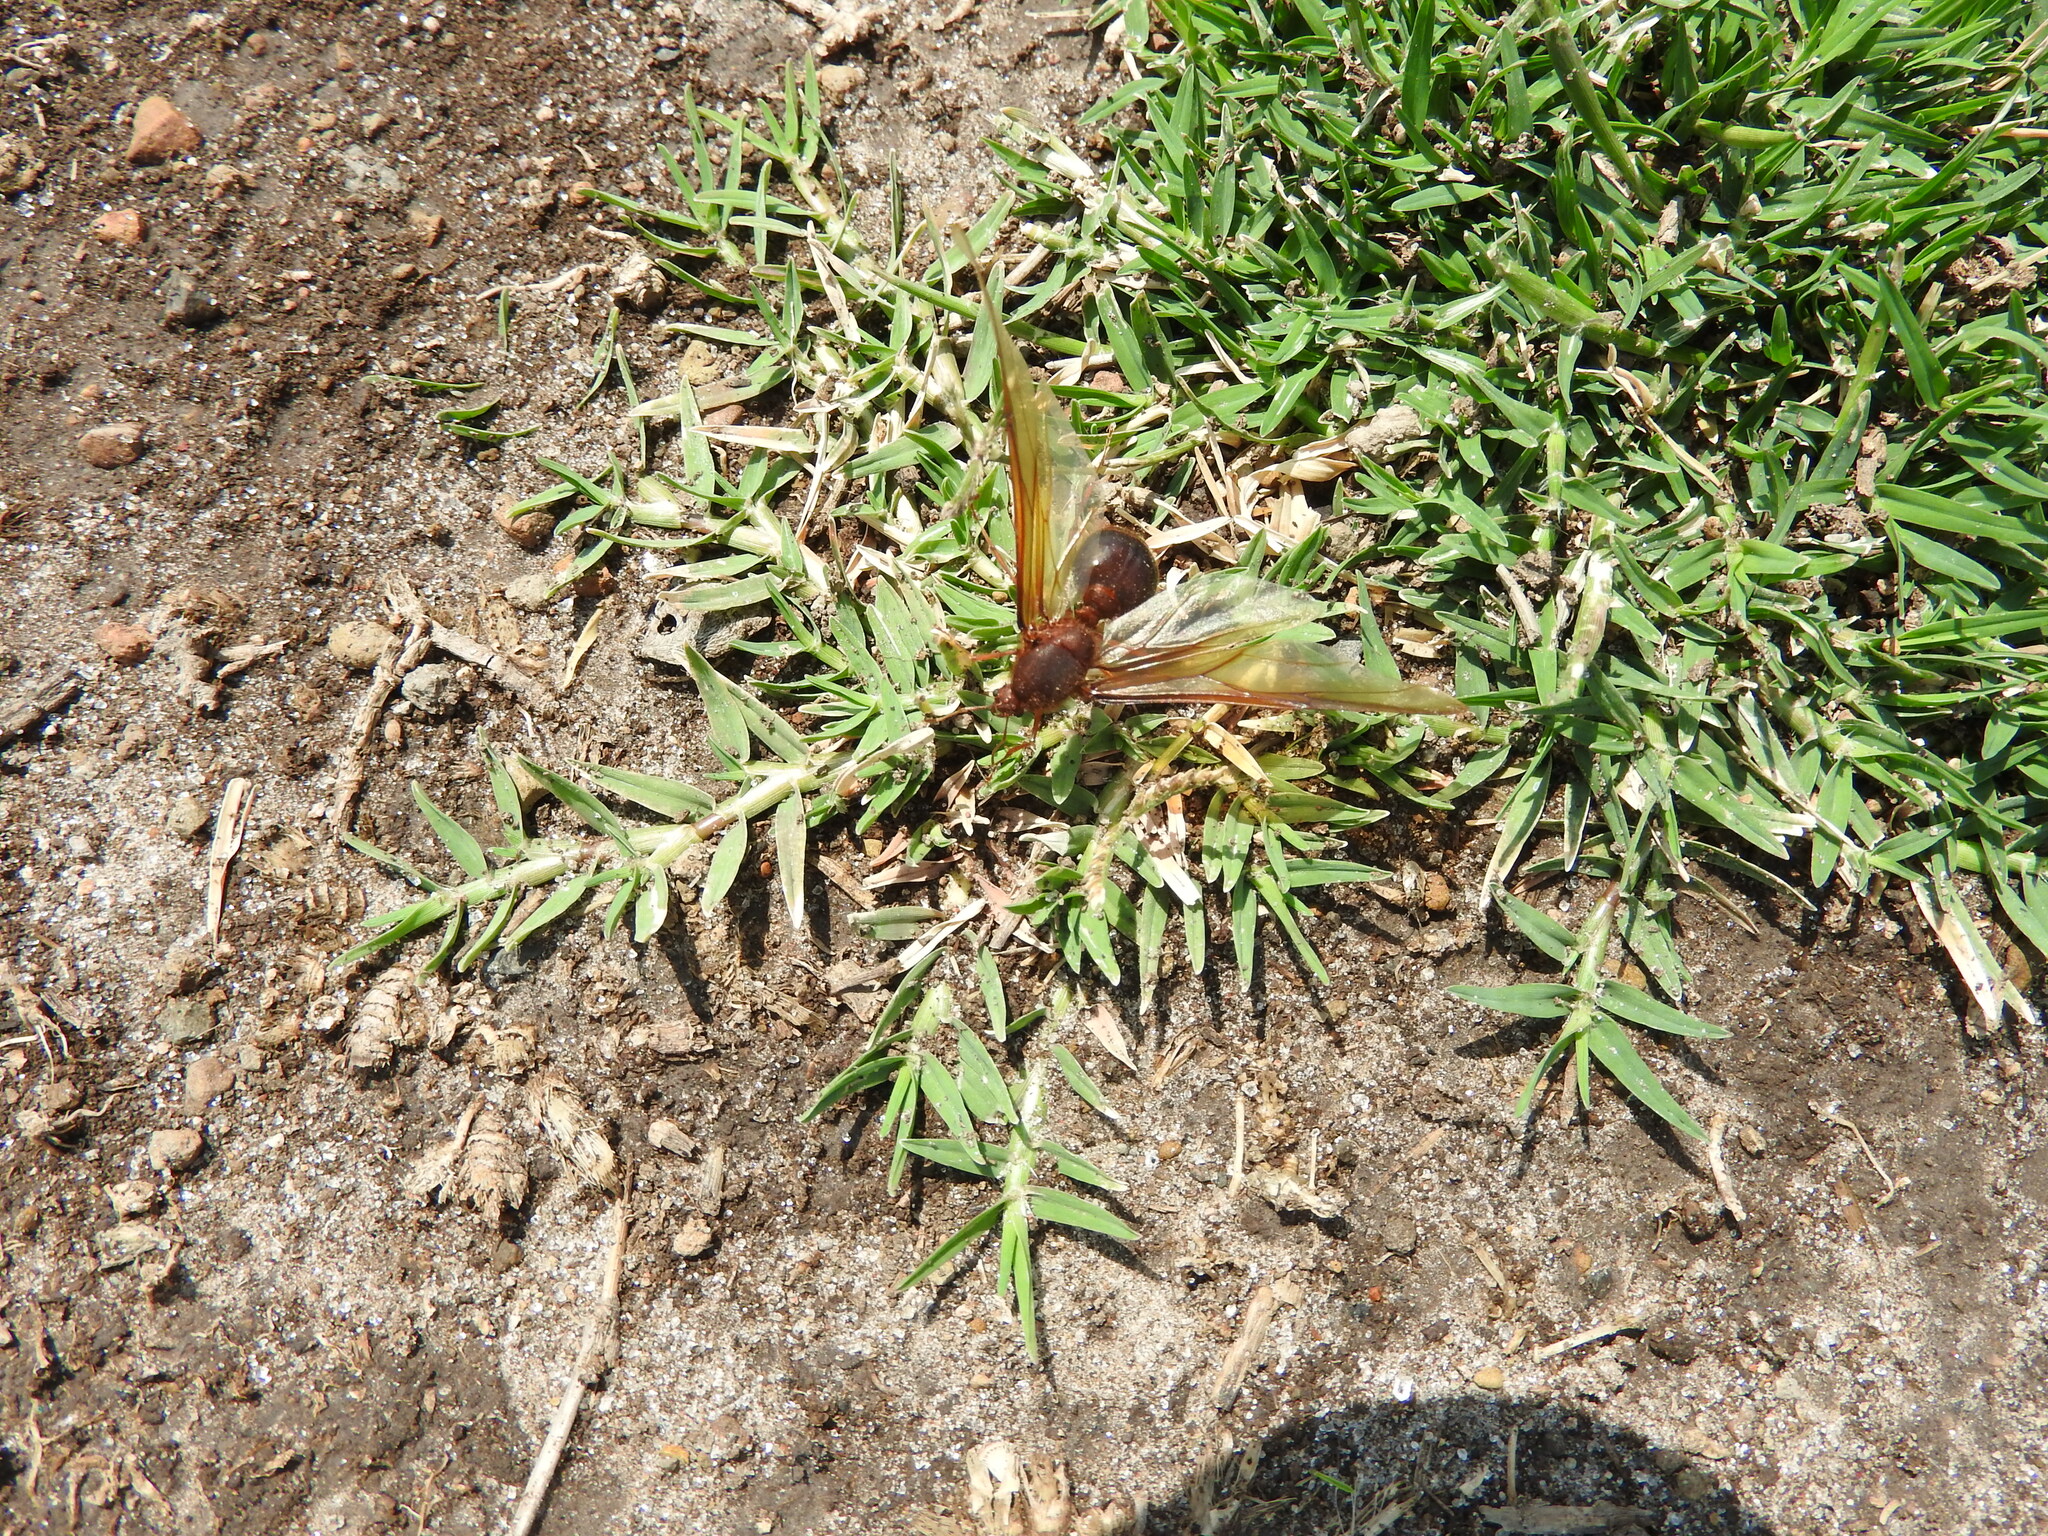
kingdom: Animalia
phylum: Arthropoda
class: Insecta
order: Hymenoptera
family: Formicidae
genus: Atta
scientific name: Atta mexicana
